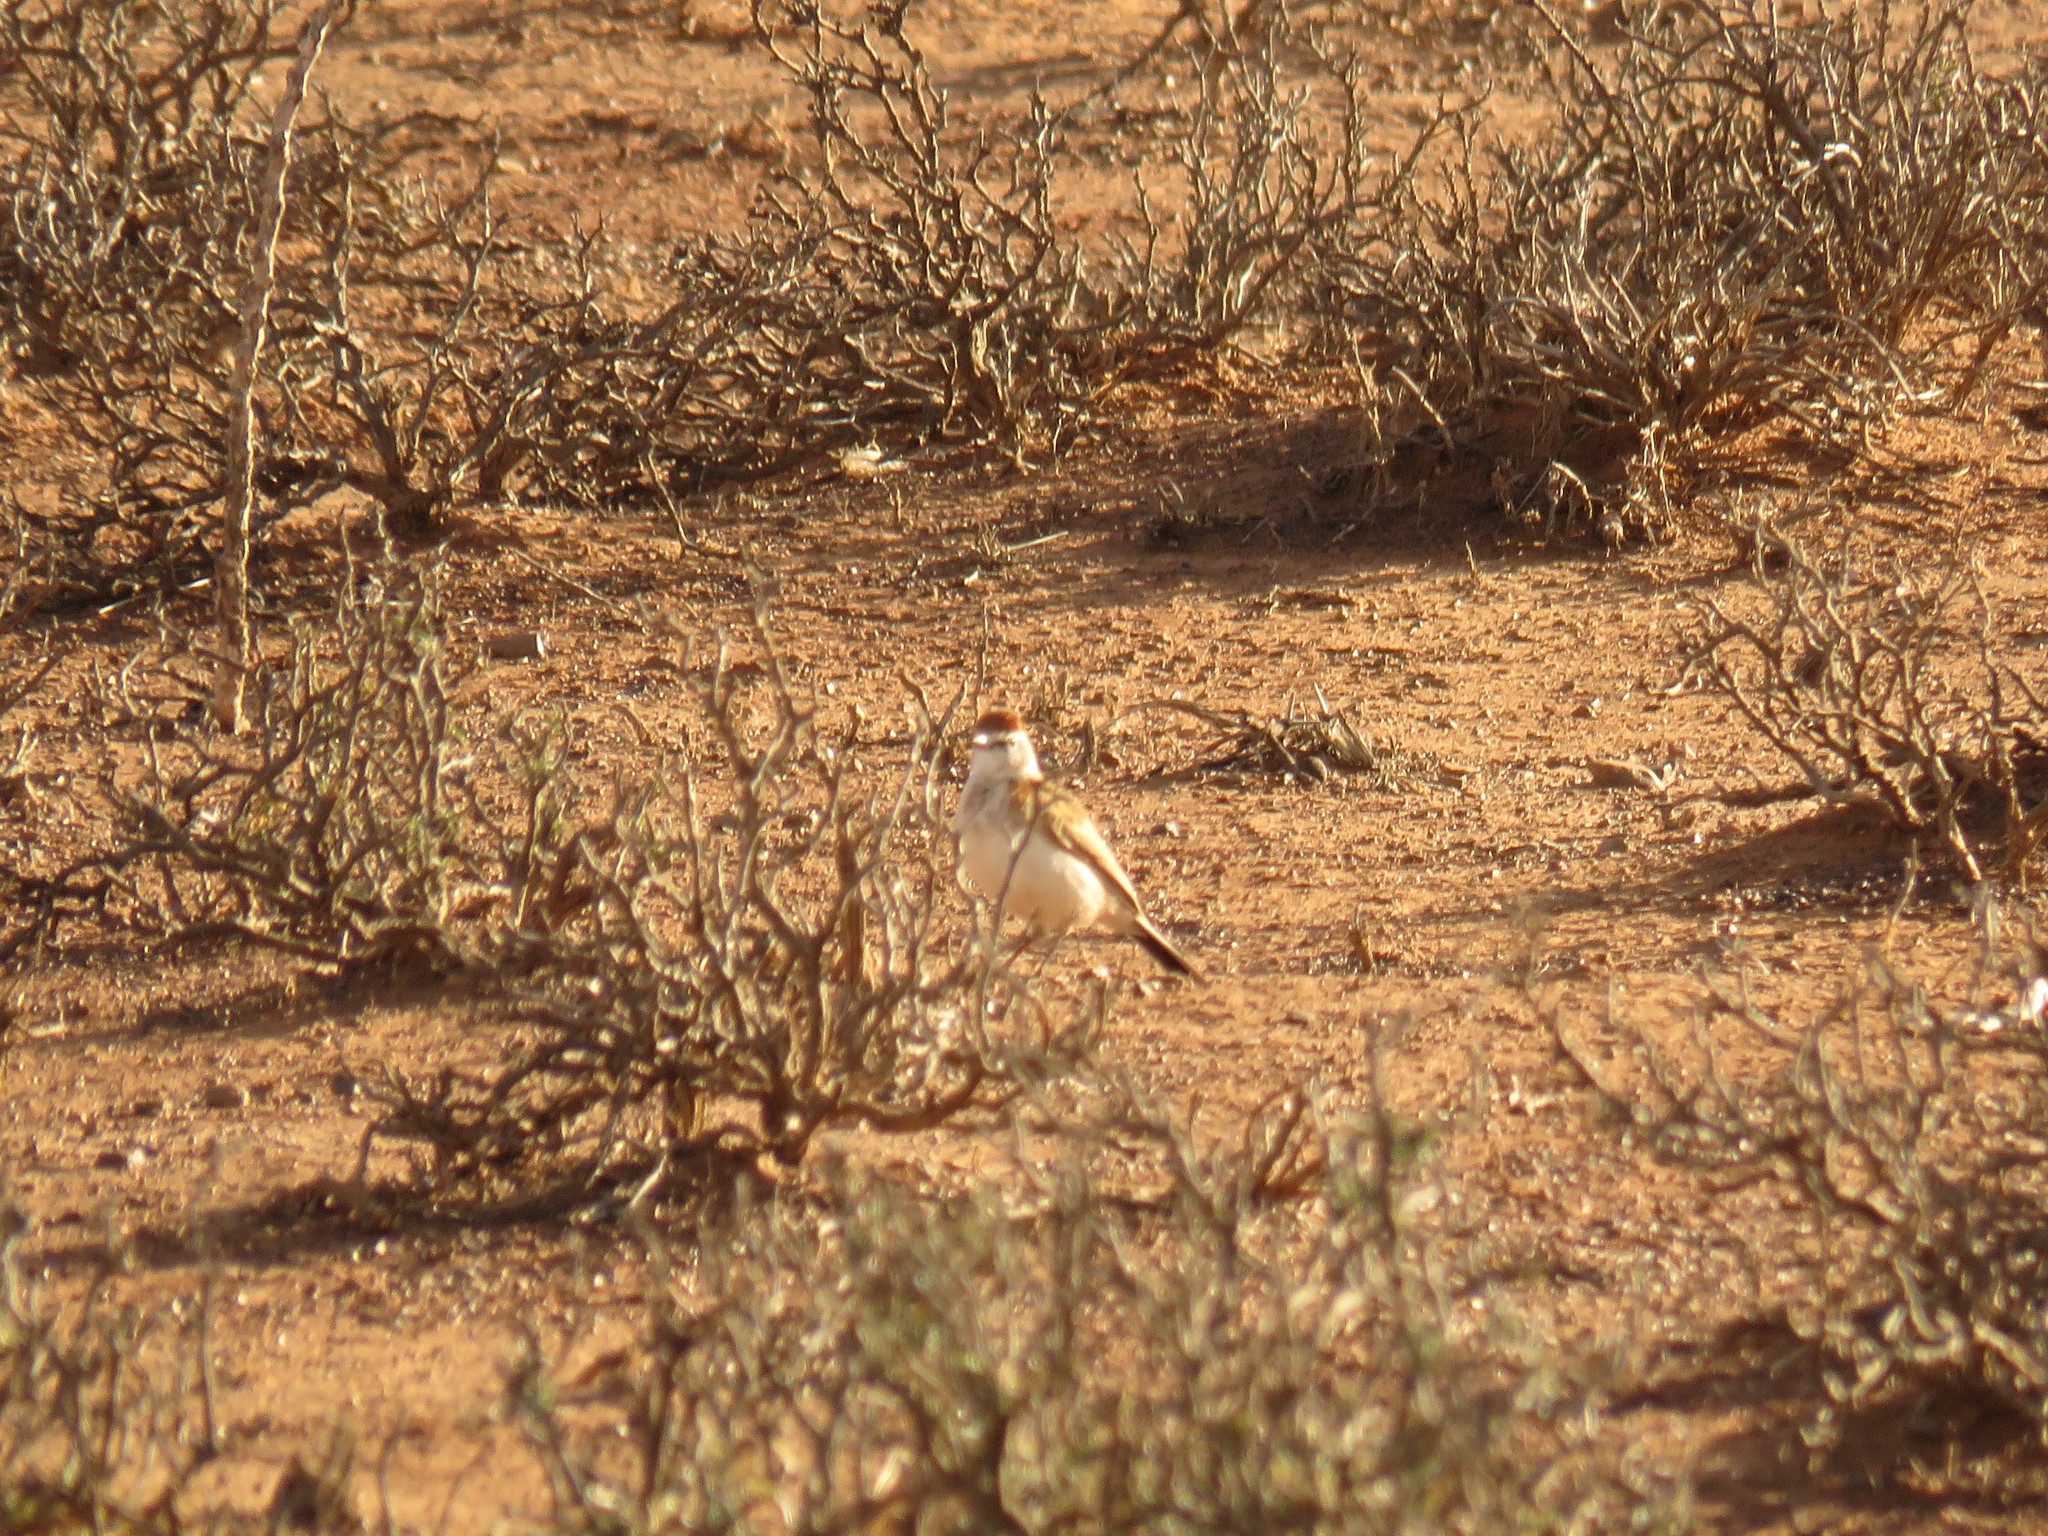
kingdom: Animalia
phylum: Chordata
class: Aves
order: Passeriformes
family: Alaudidae
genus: Calandrella
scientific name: Calandrella cinerea
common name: Red-capped lark
